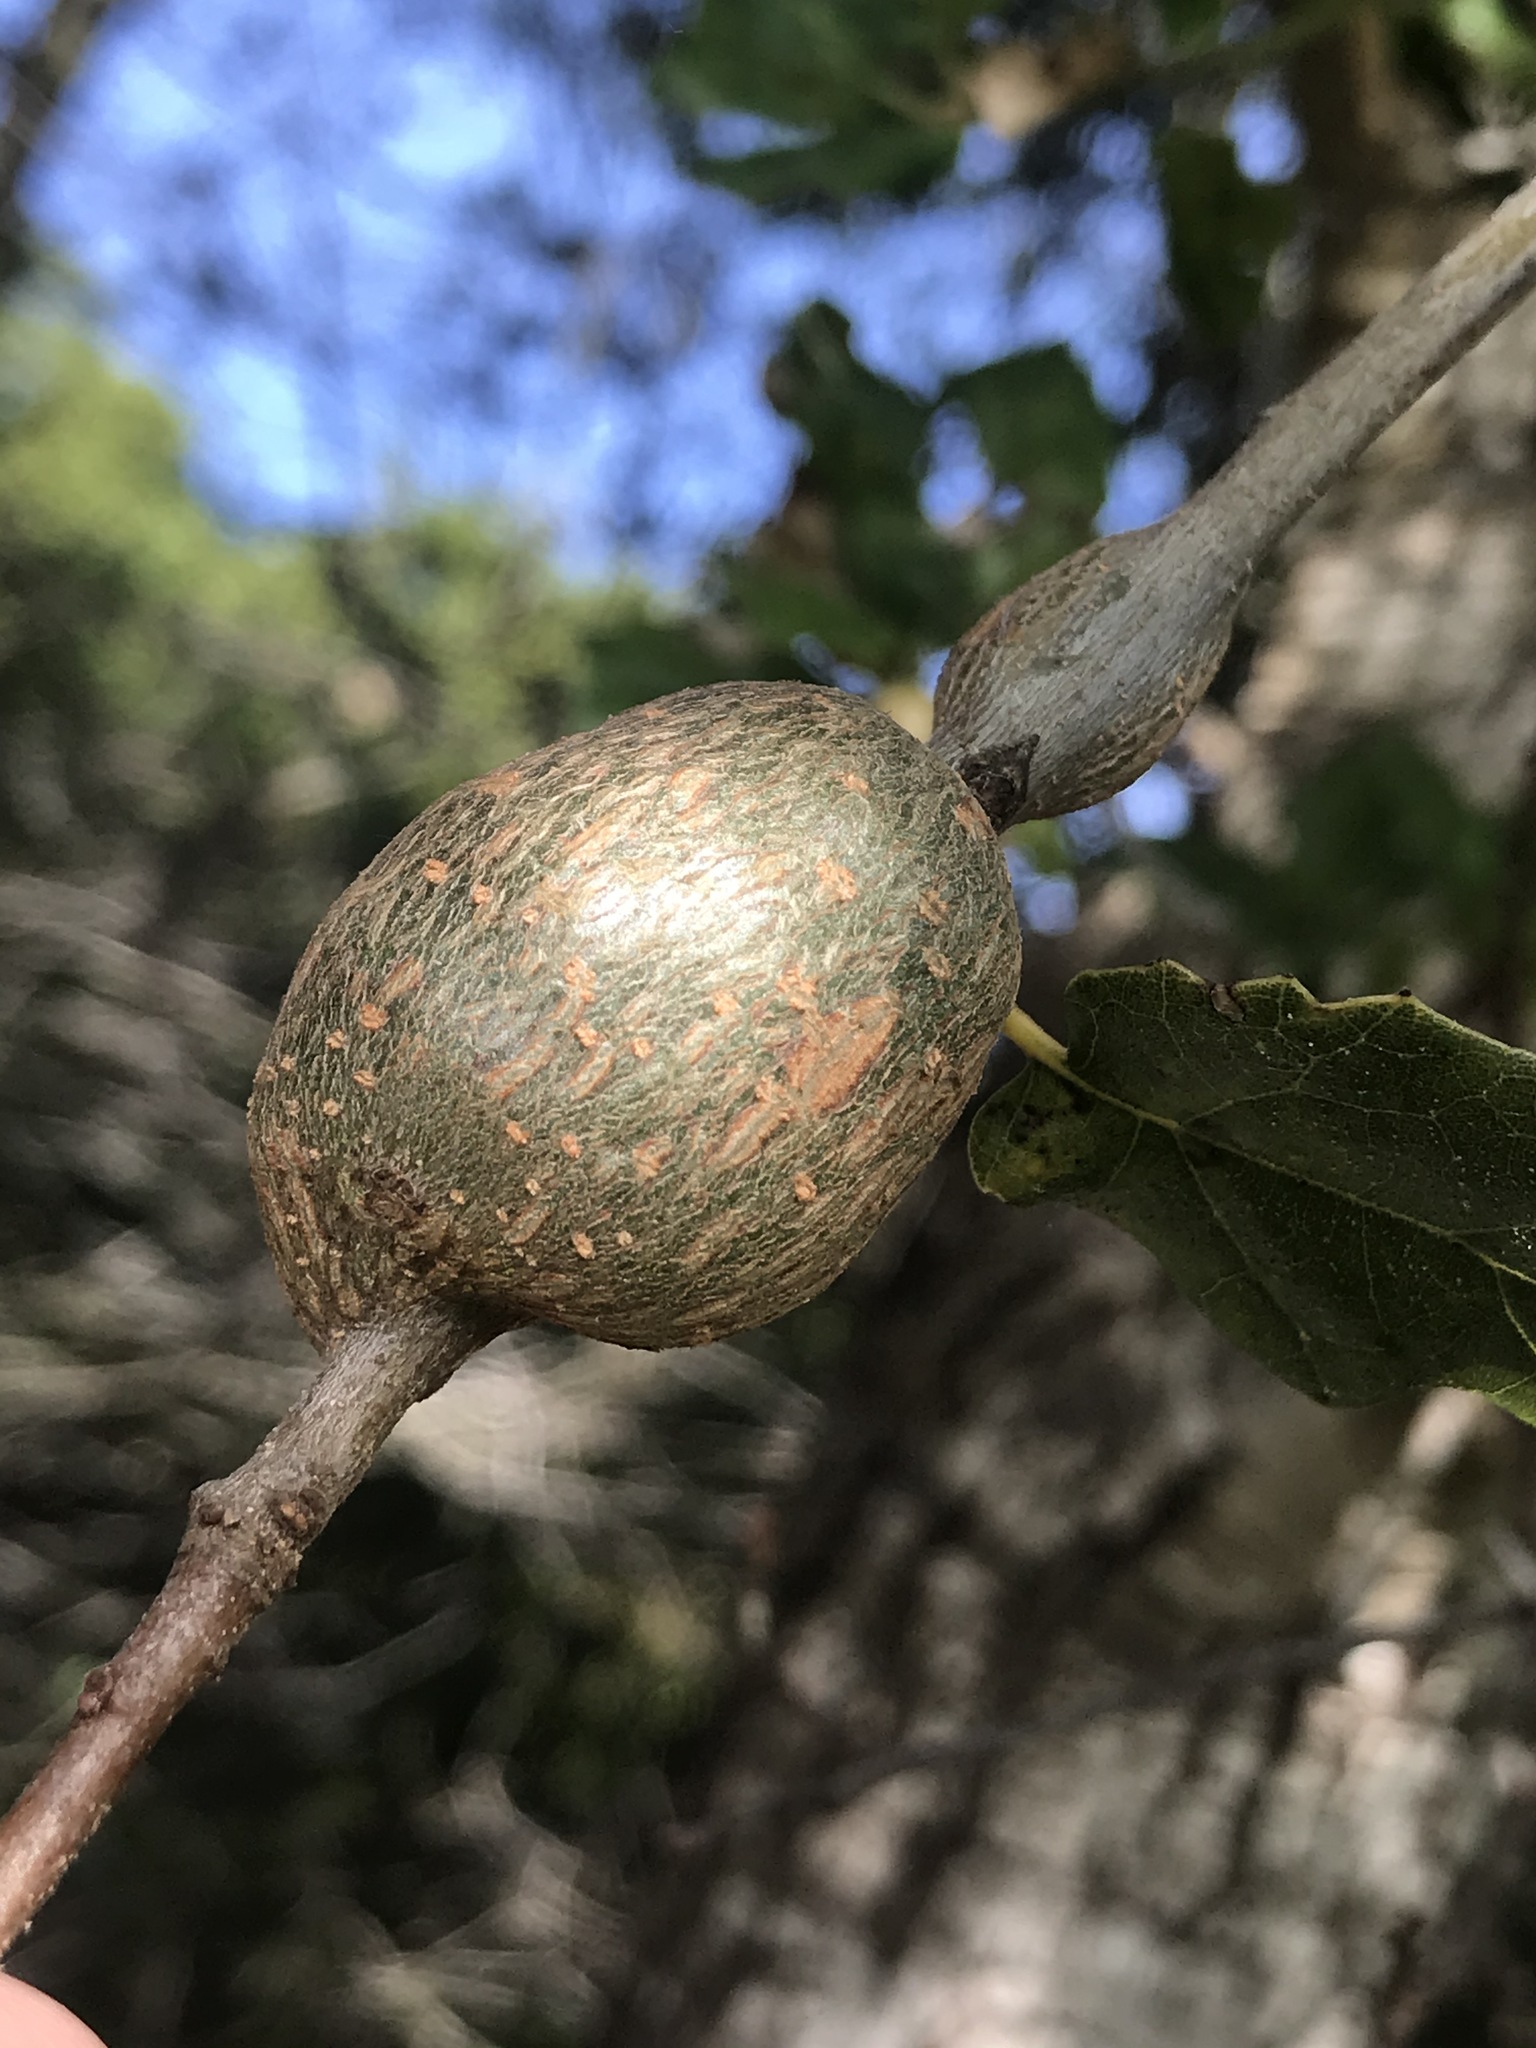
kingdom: Animalia
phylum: Arthropoda
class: Insecta
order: Hymenoptera
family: Cynipidae
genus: Callirhytis
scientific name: Callirhytis
